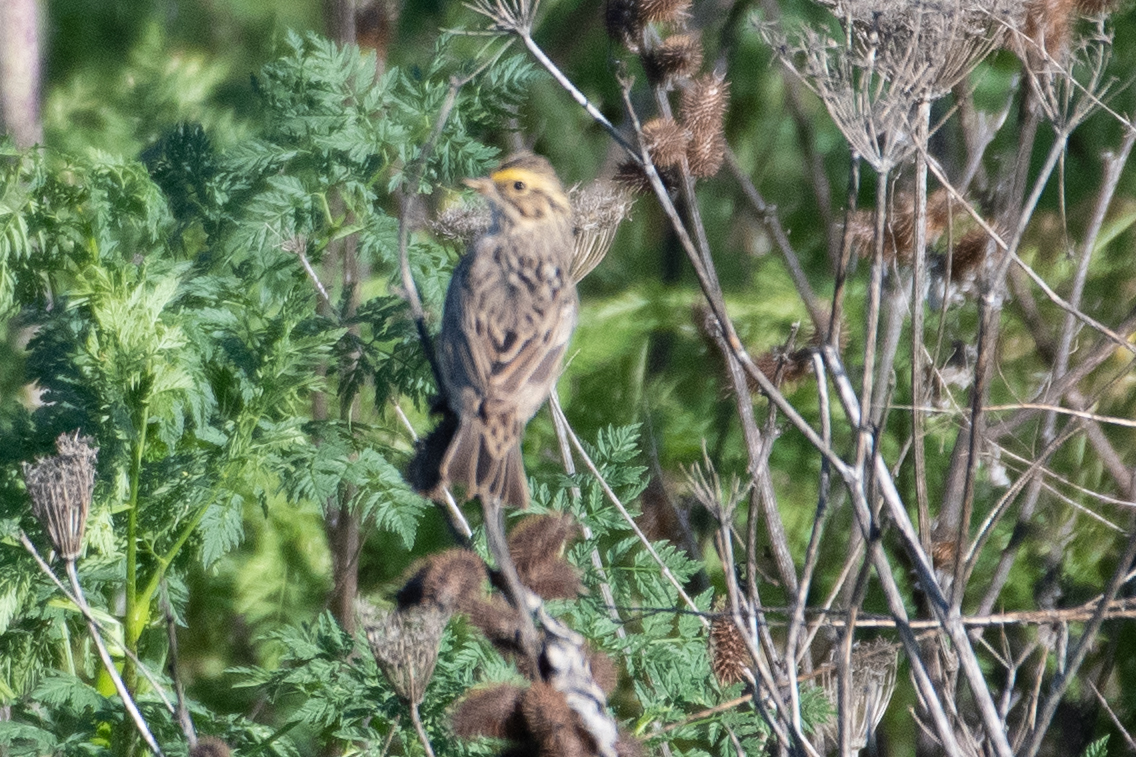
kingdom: Animalia
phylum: Chordata
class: Aves
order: Passeriformes
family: Passerellidae
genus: Passerculus
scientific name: Passerculus sandwichensis
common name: Savannah sparrow
